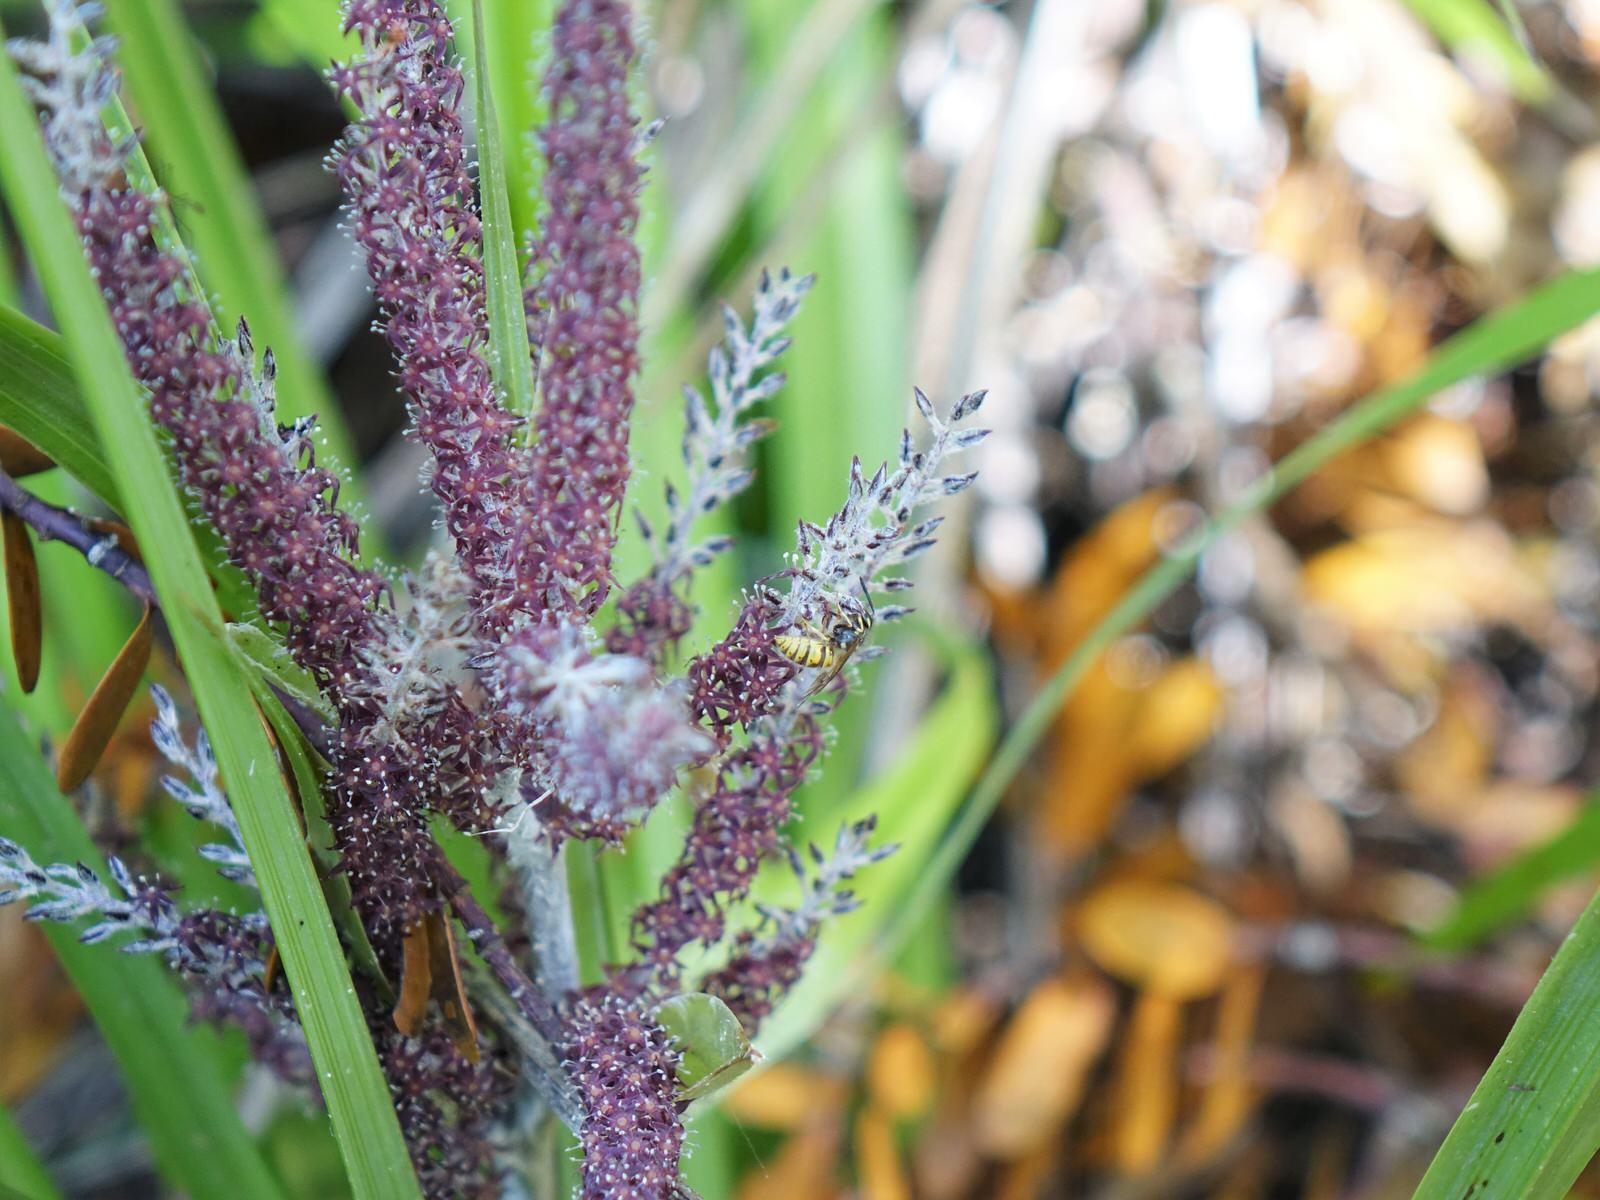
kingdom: Animalia
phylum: Arthropoda
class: Insecta
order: Hymenoptera
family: Vespidae
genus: Vespula
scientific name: Vespula vulgaris
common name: Common wasp
